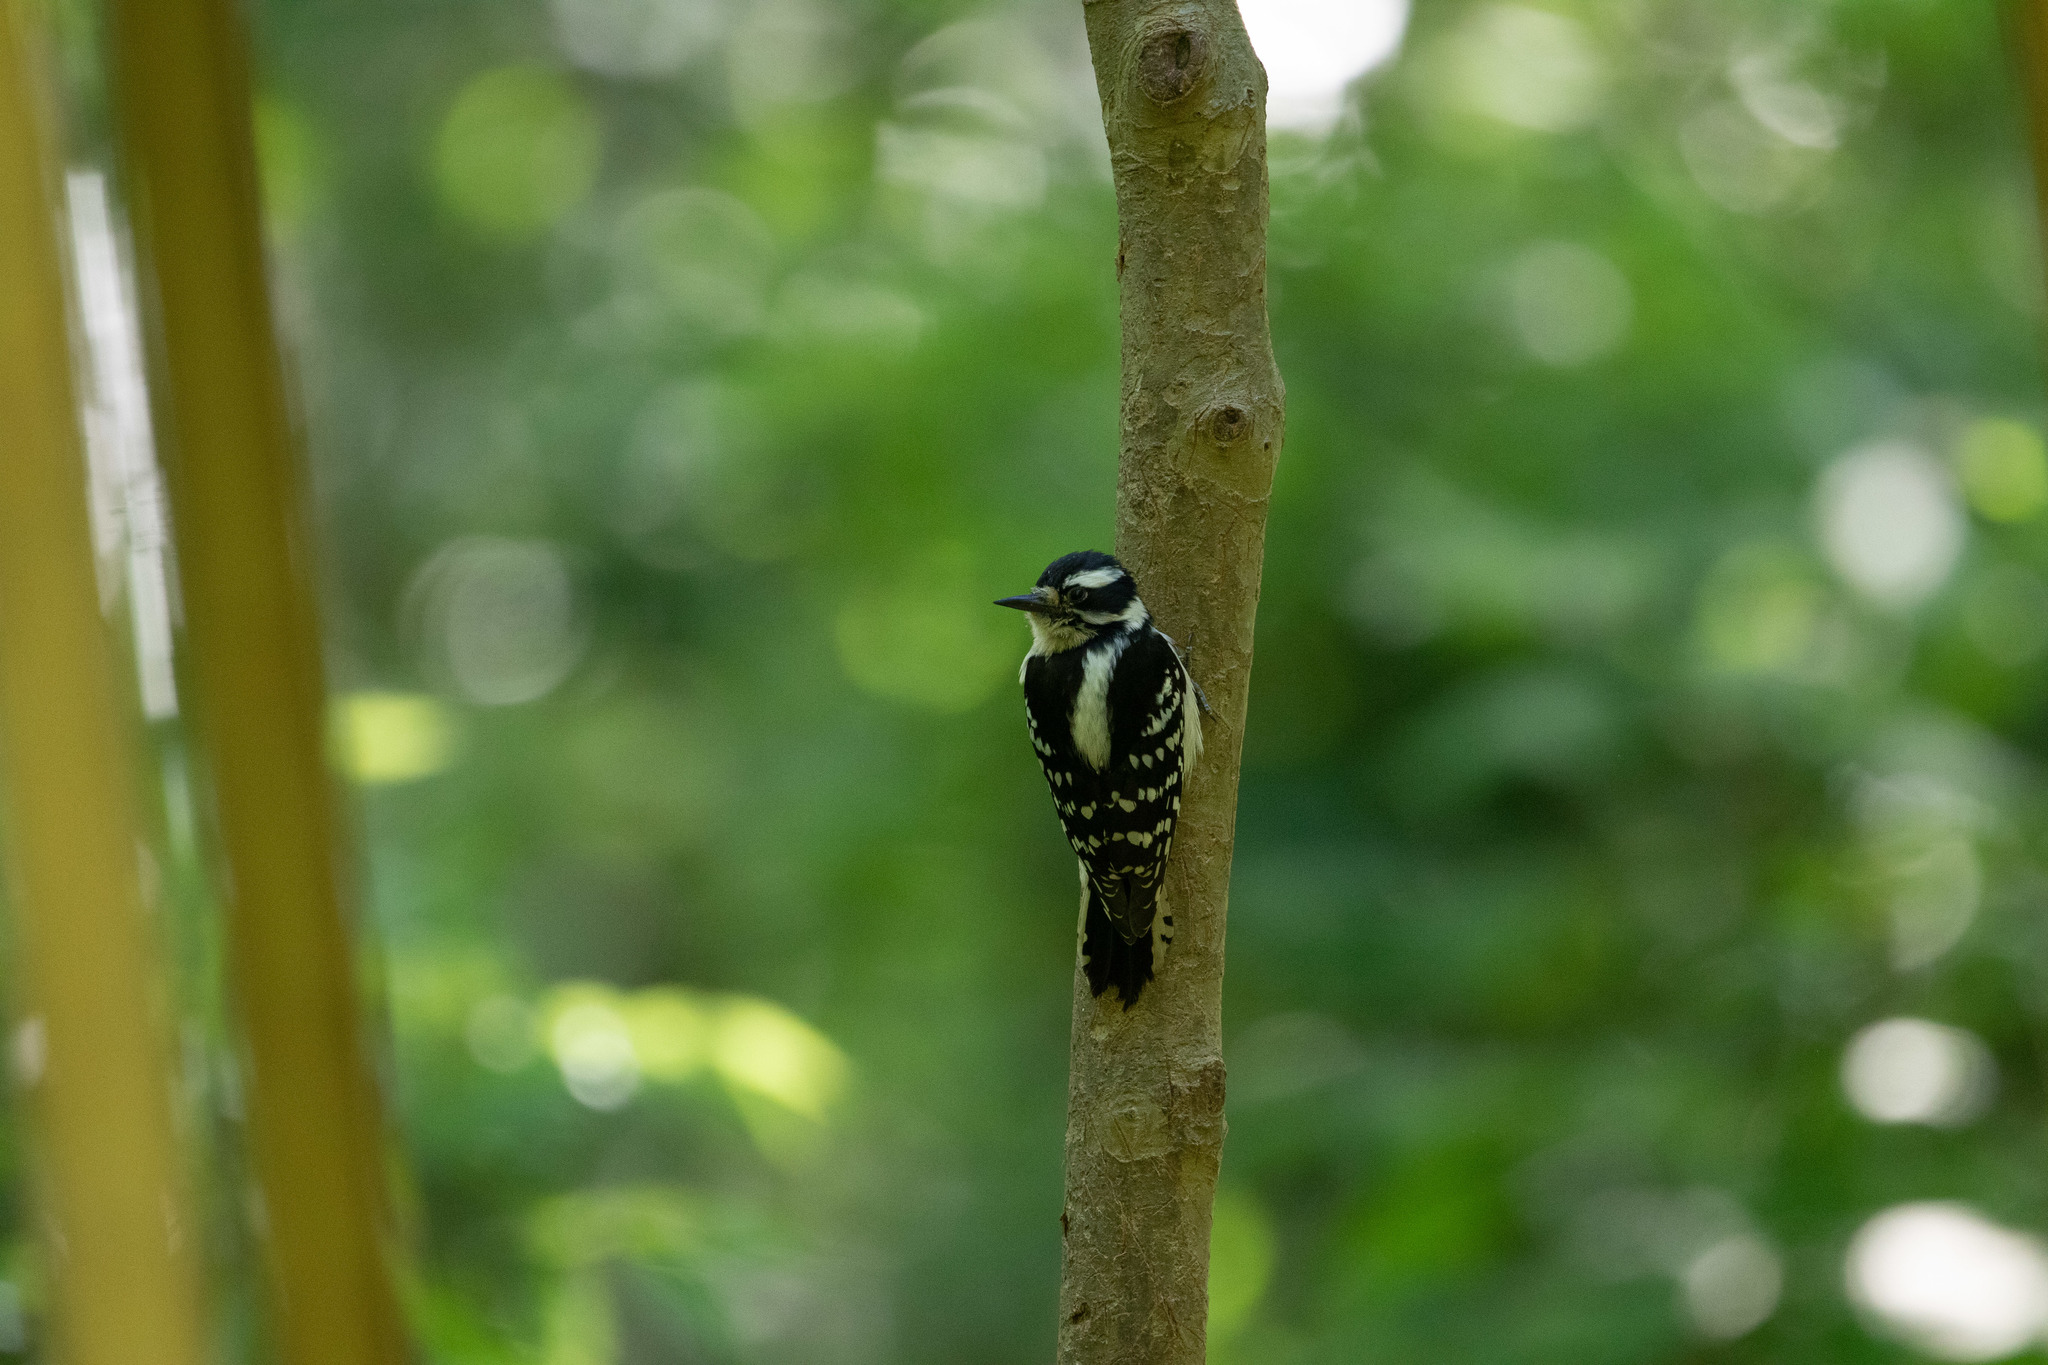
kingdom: Animalia
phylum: Chordata
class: Aves
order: Piciformes
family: Picidae
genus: Dryobates
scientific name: Dryobates pubescens
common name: Downy woodpecker
